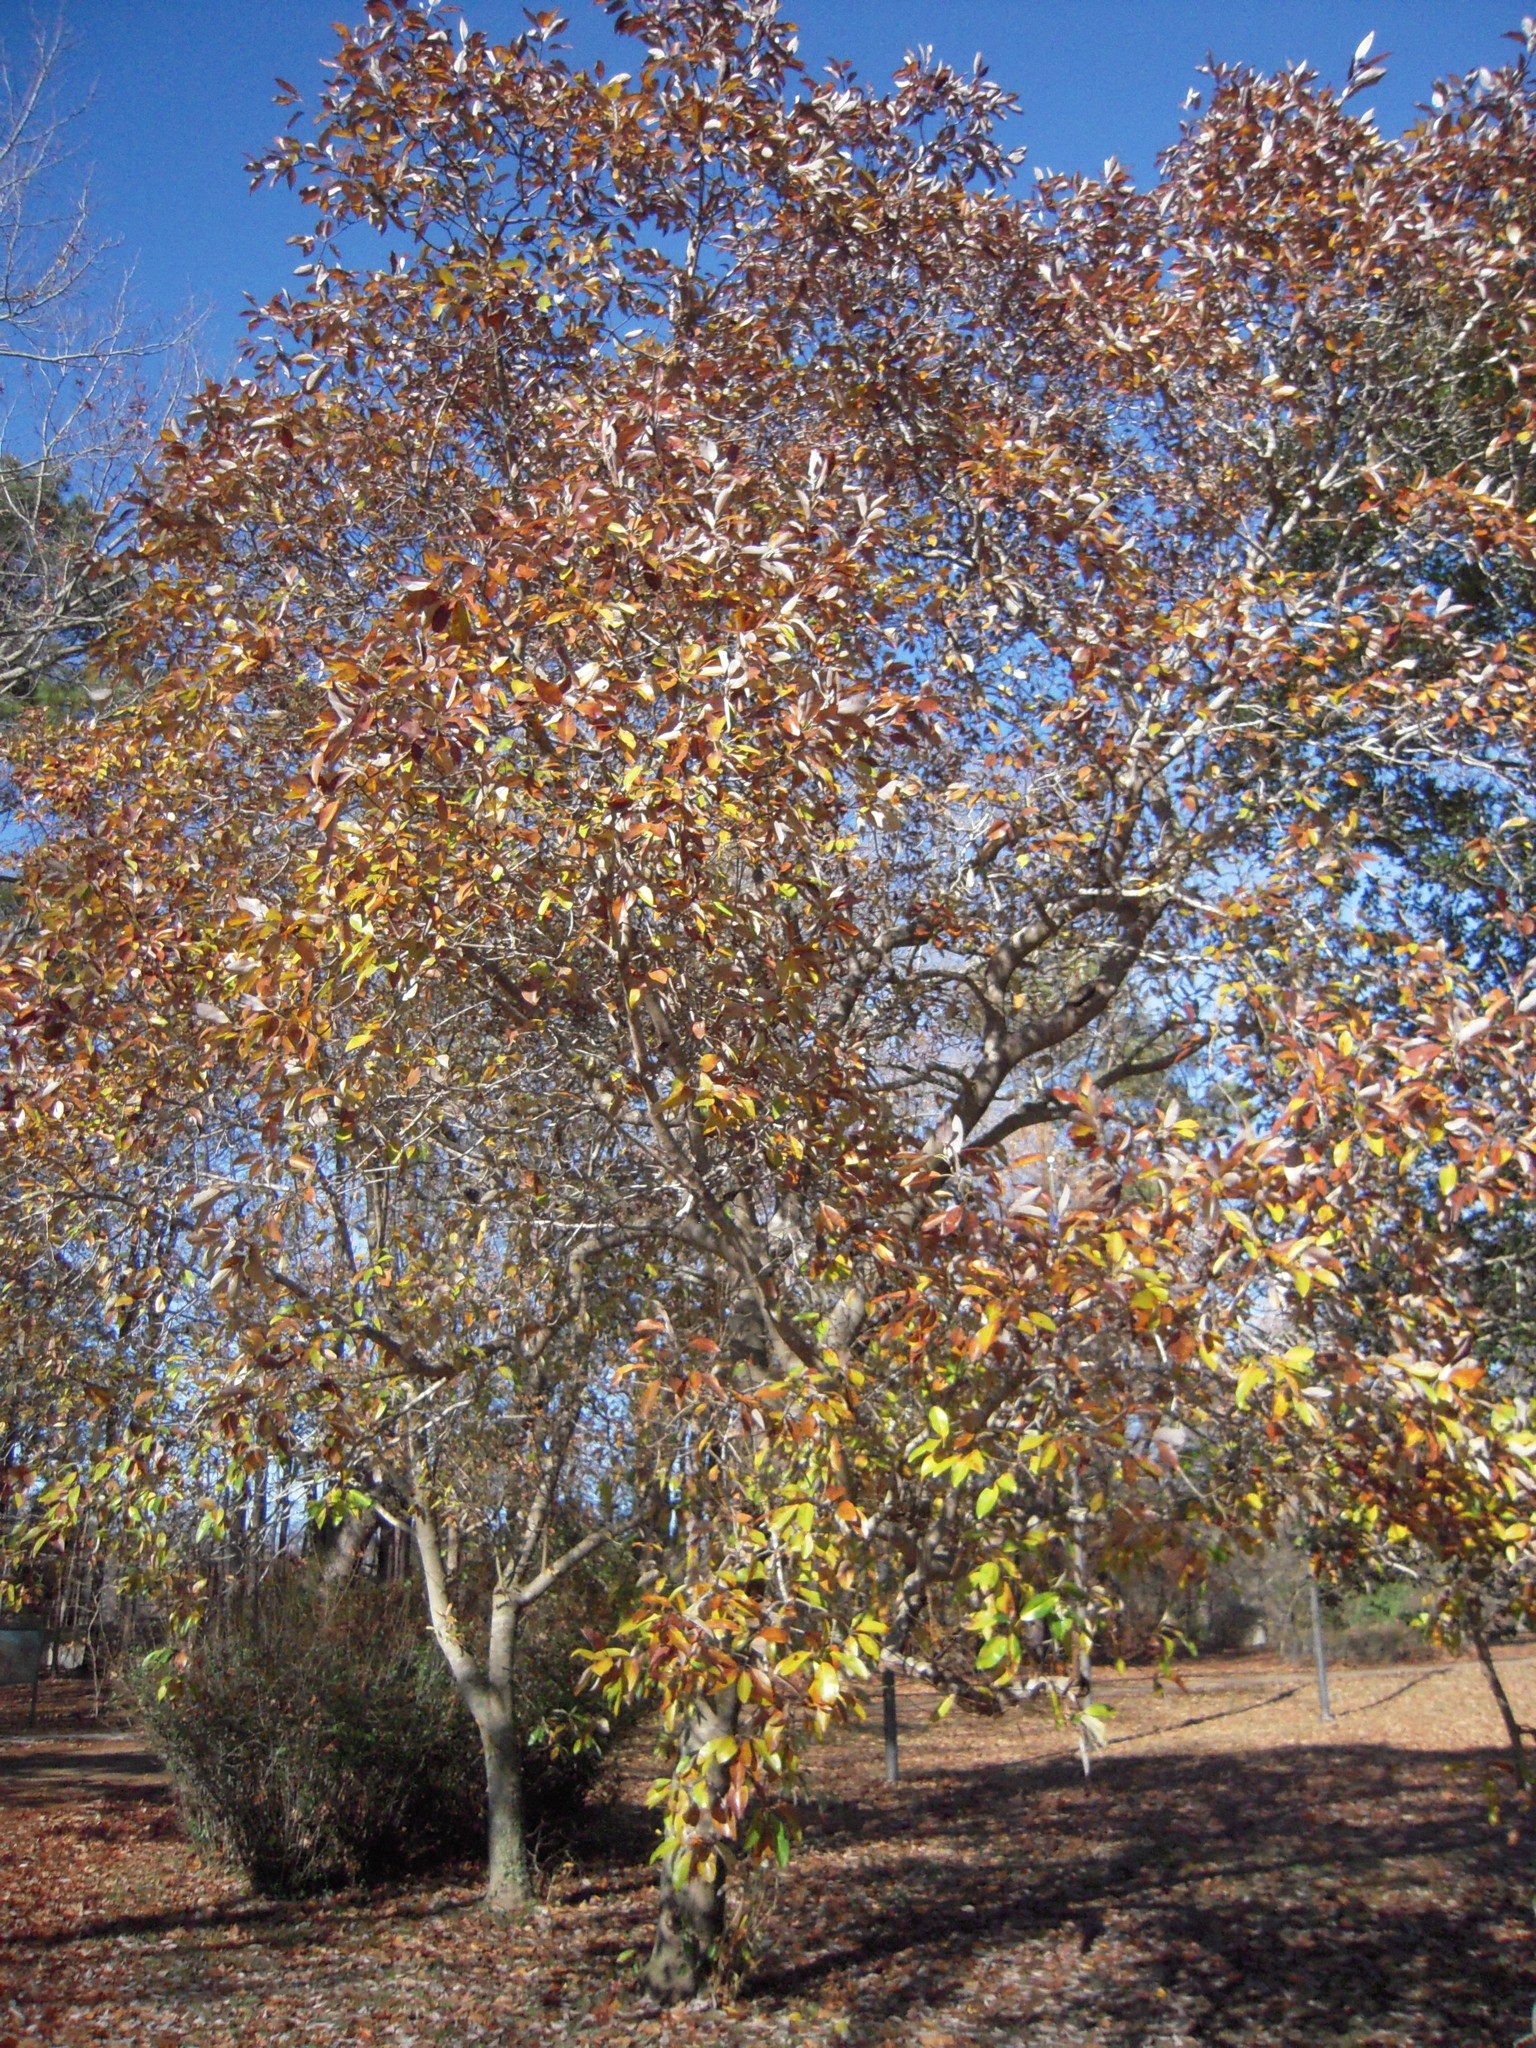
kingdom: Plantae
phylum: Tracheophyta
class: Magnoliopsida
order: Magnoliales
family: Magnoliaceae
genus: Magnolia
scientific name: Magnolia virginiana
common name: Swamp bay
